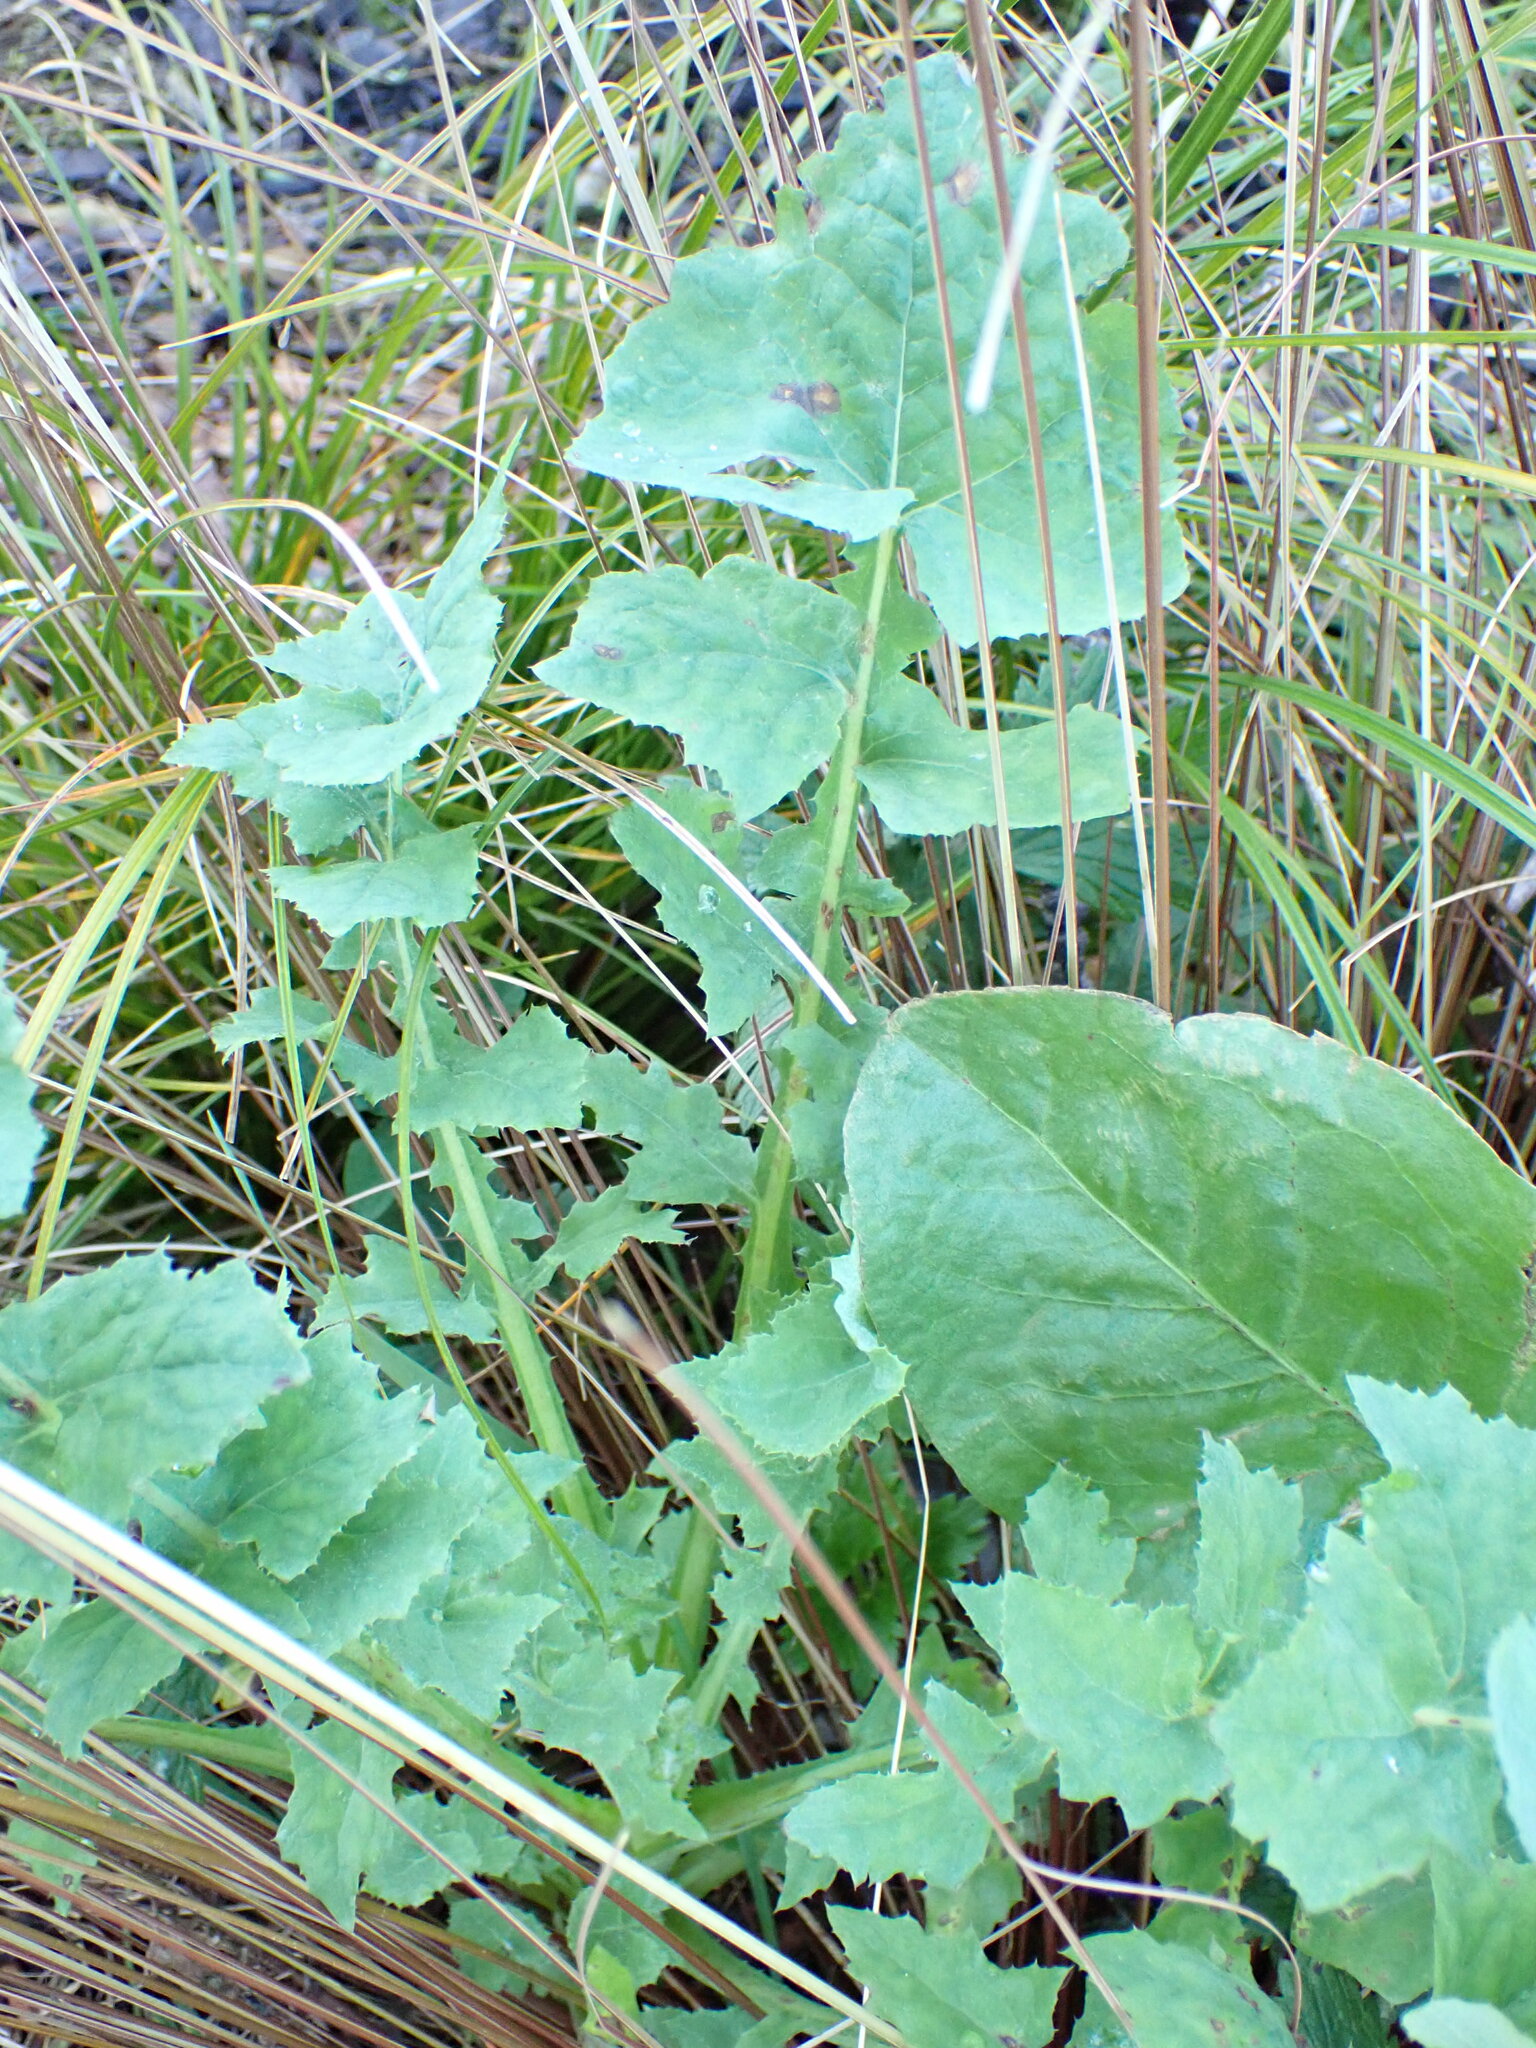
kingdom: Plantae
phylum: Tracheophyta
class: Magnoliopsida
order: Asterales
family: Asteraceae
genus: Sonchus
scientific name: Sonchus oleraceus
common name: Common sowthistle
